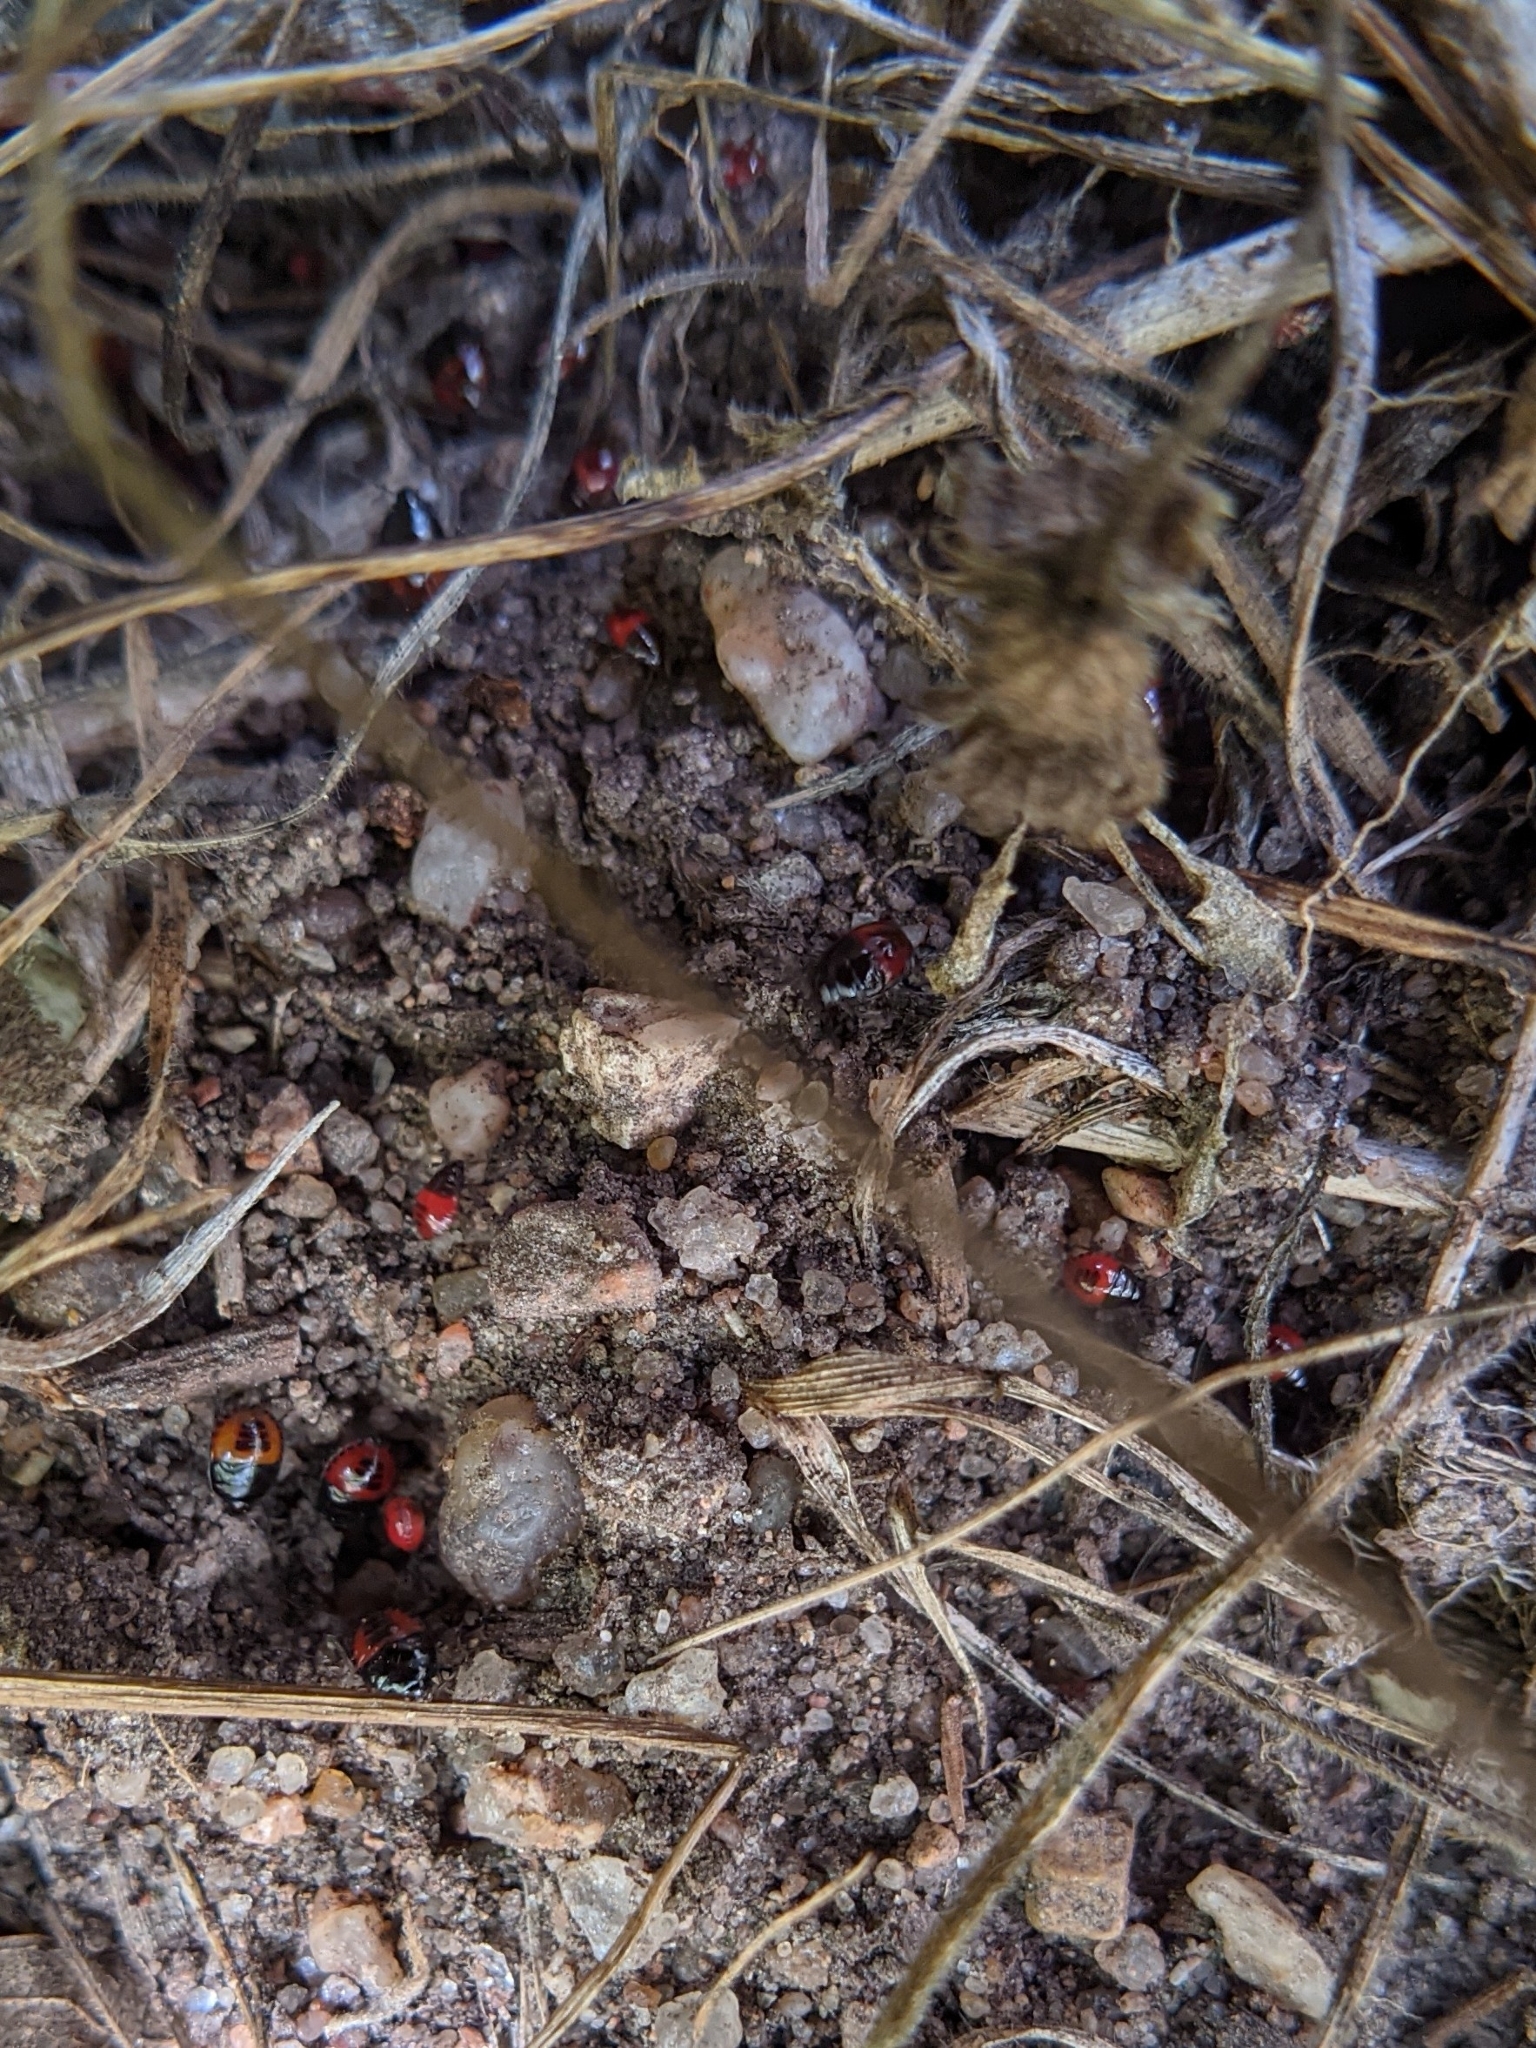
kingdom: Animalia
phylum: Arthropoda
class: Insecta
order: Hemiptera
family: Cydnidae
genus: Sehirus
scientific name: Sehirus cinctus
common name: White-margined burrower bug
